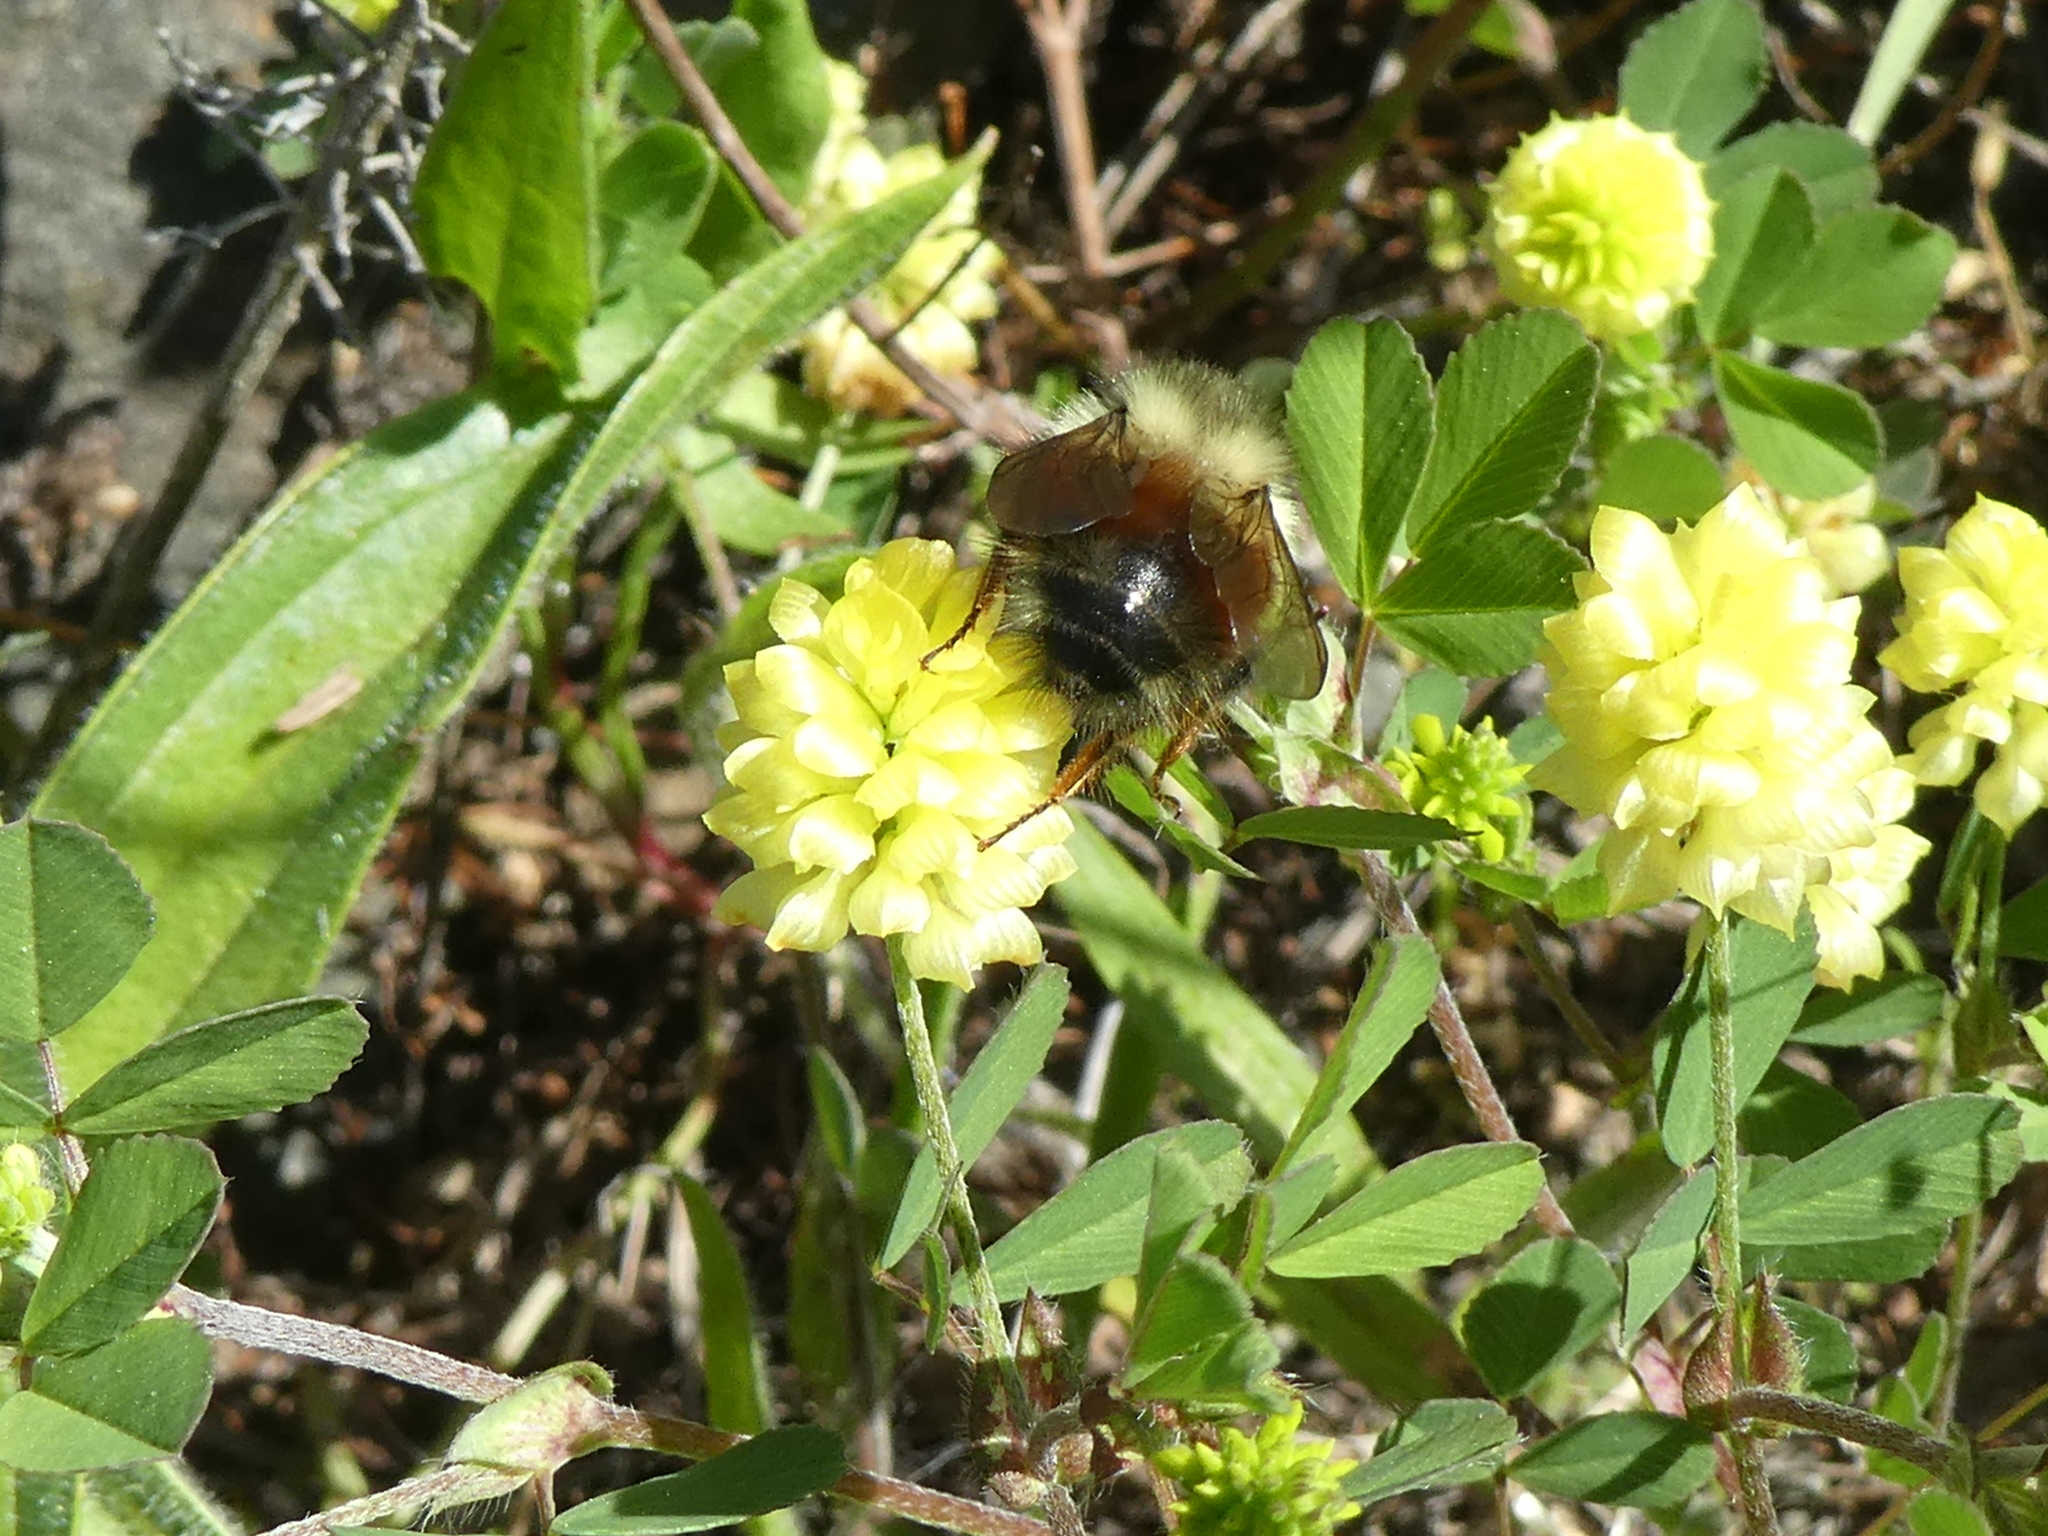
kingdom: Animalia
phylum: Arthropoda
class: Insecta
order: Hymenoptera
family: Apidae
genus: Bombus
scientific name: Bombus melanopygus
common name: Black tail bumble bee
